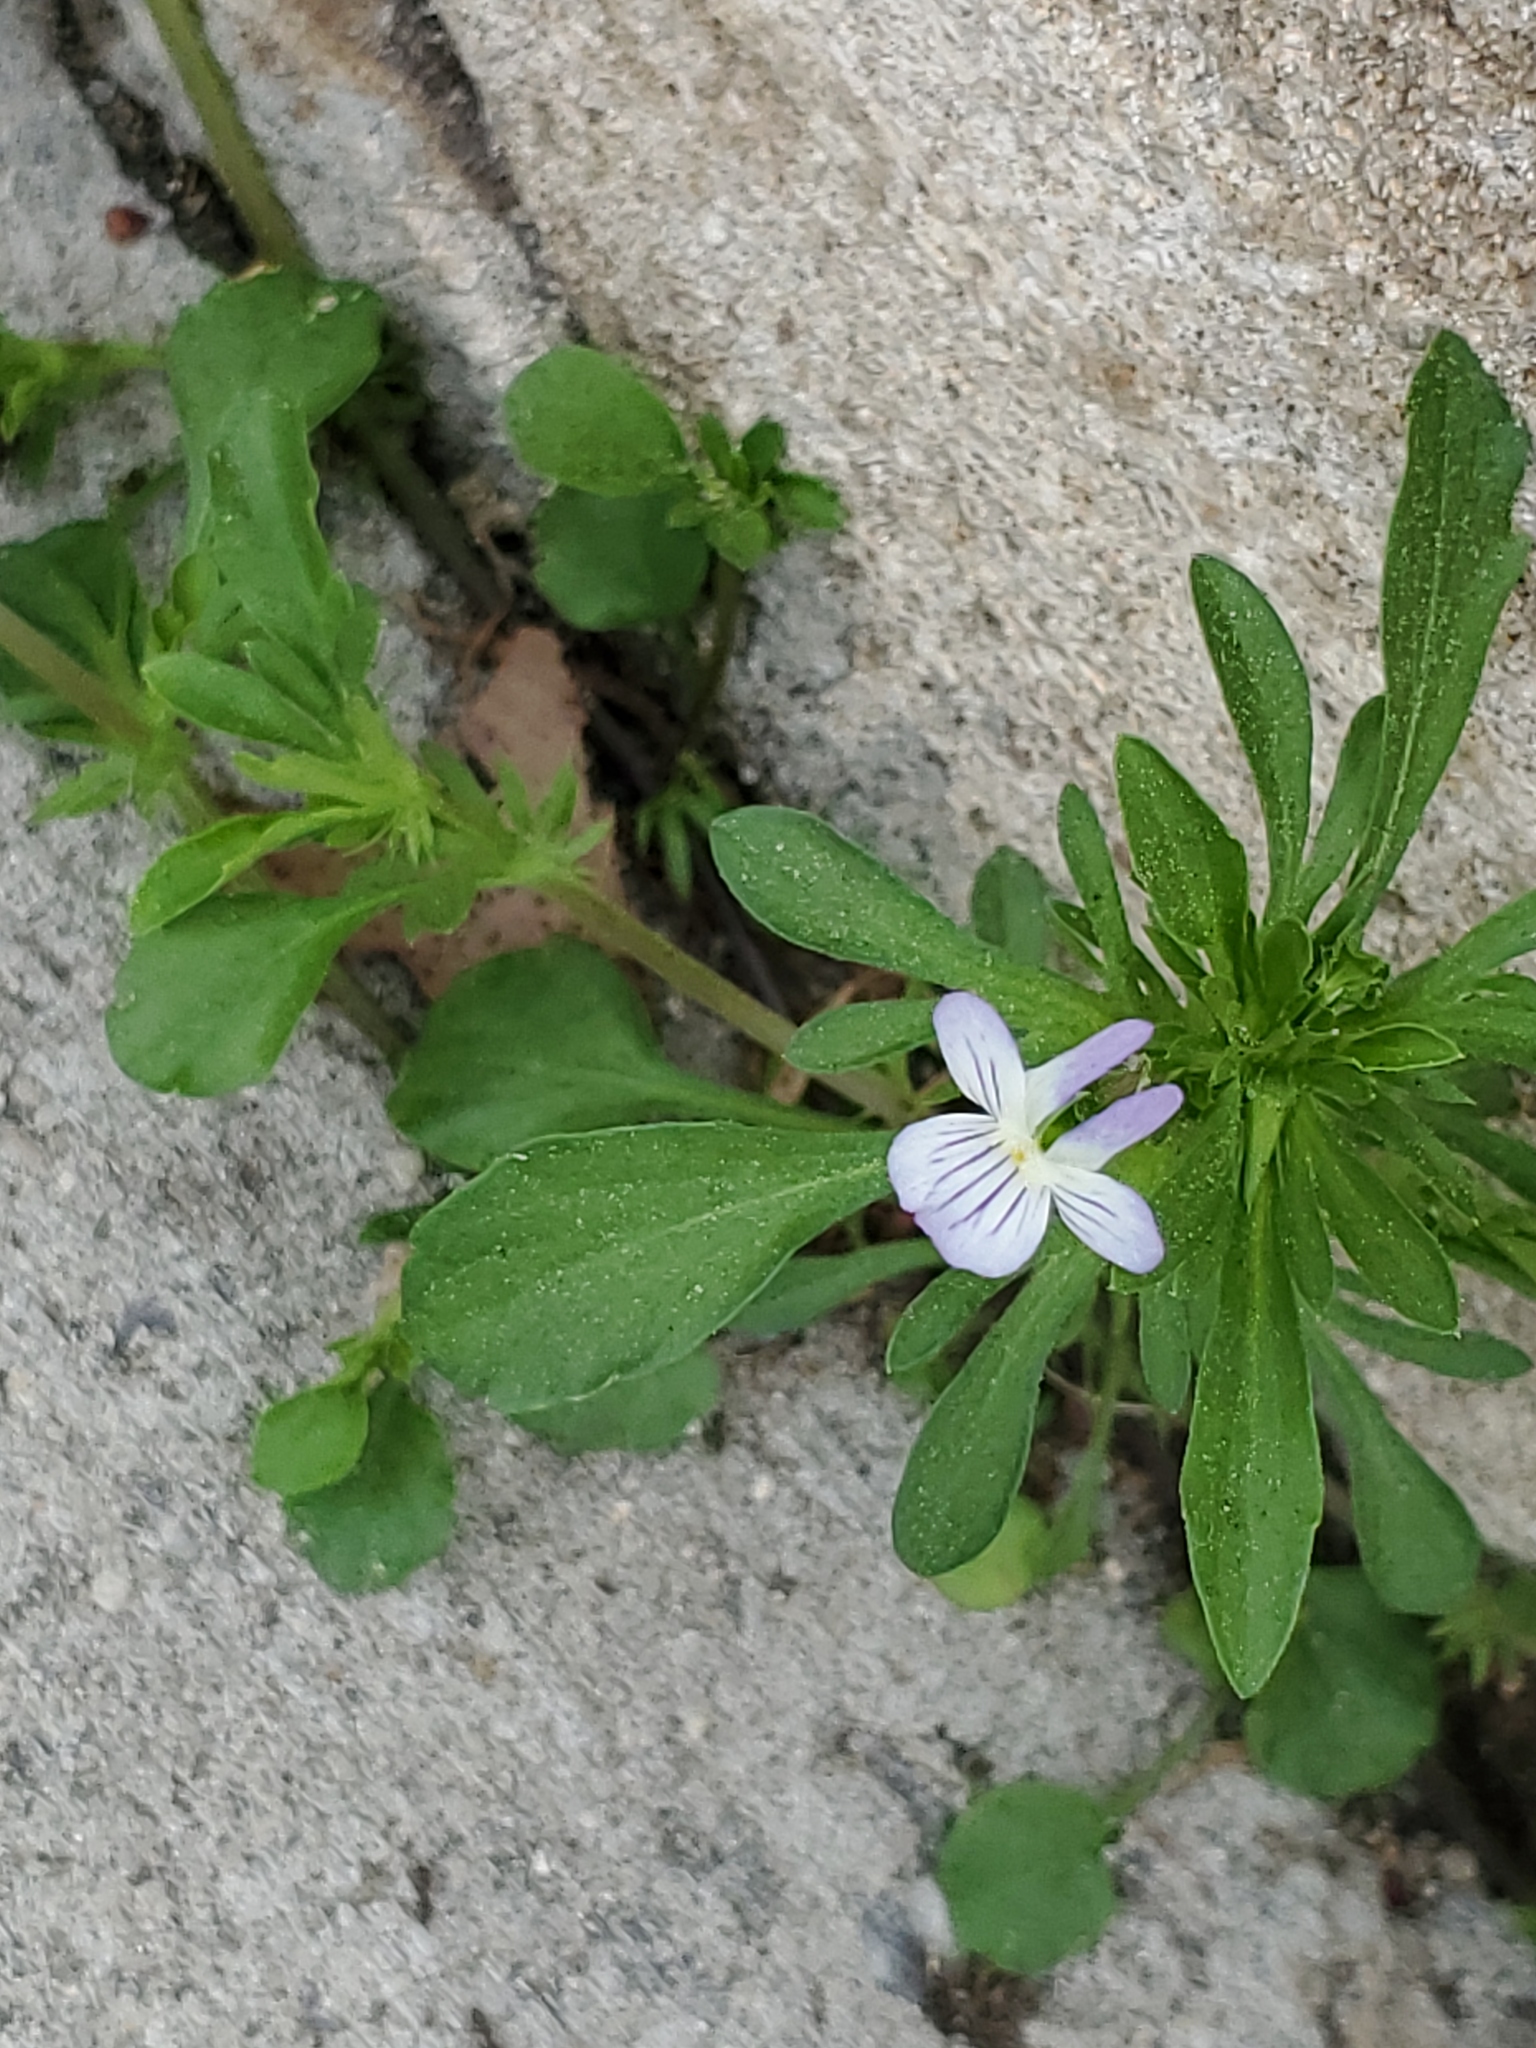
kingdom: Plantae
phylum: Tracheophyta
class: Magnoliopsida
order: Malpighiales
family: Violaceae
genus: Viola
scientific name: Viola rafinesquei
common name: American field pansy
